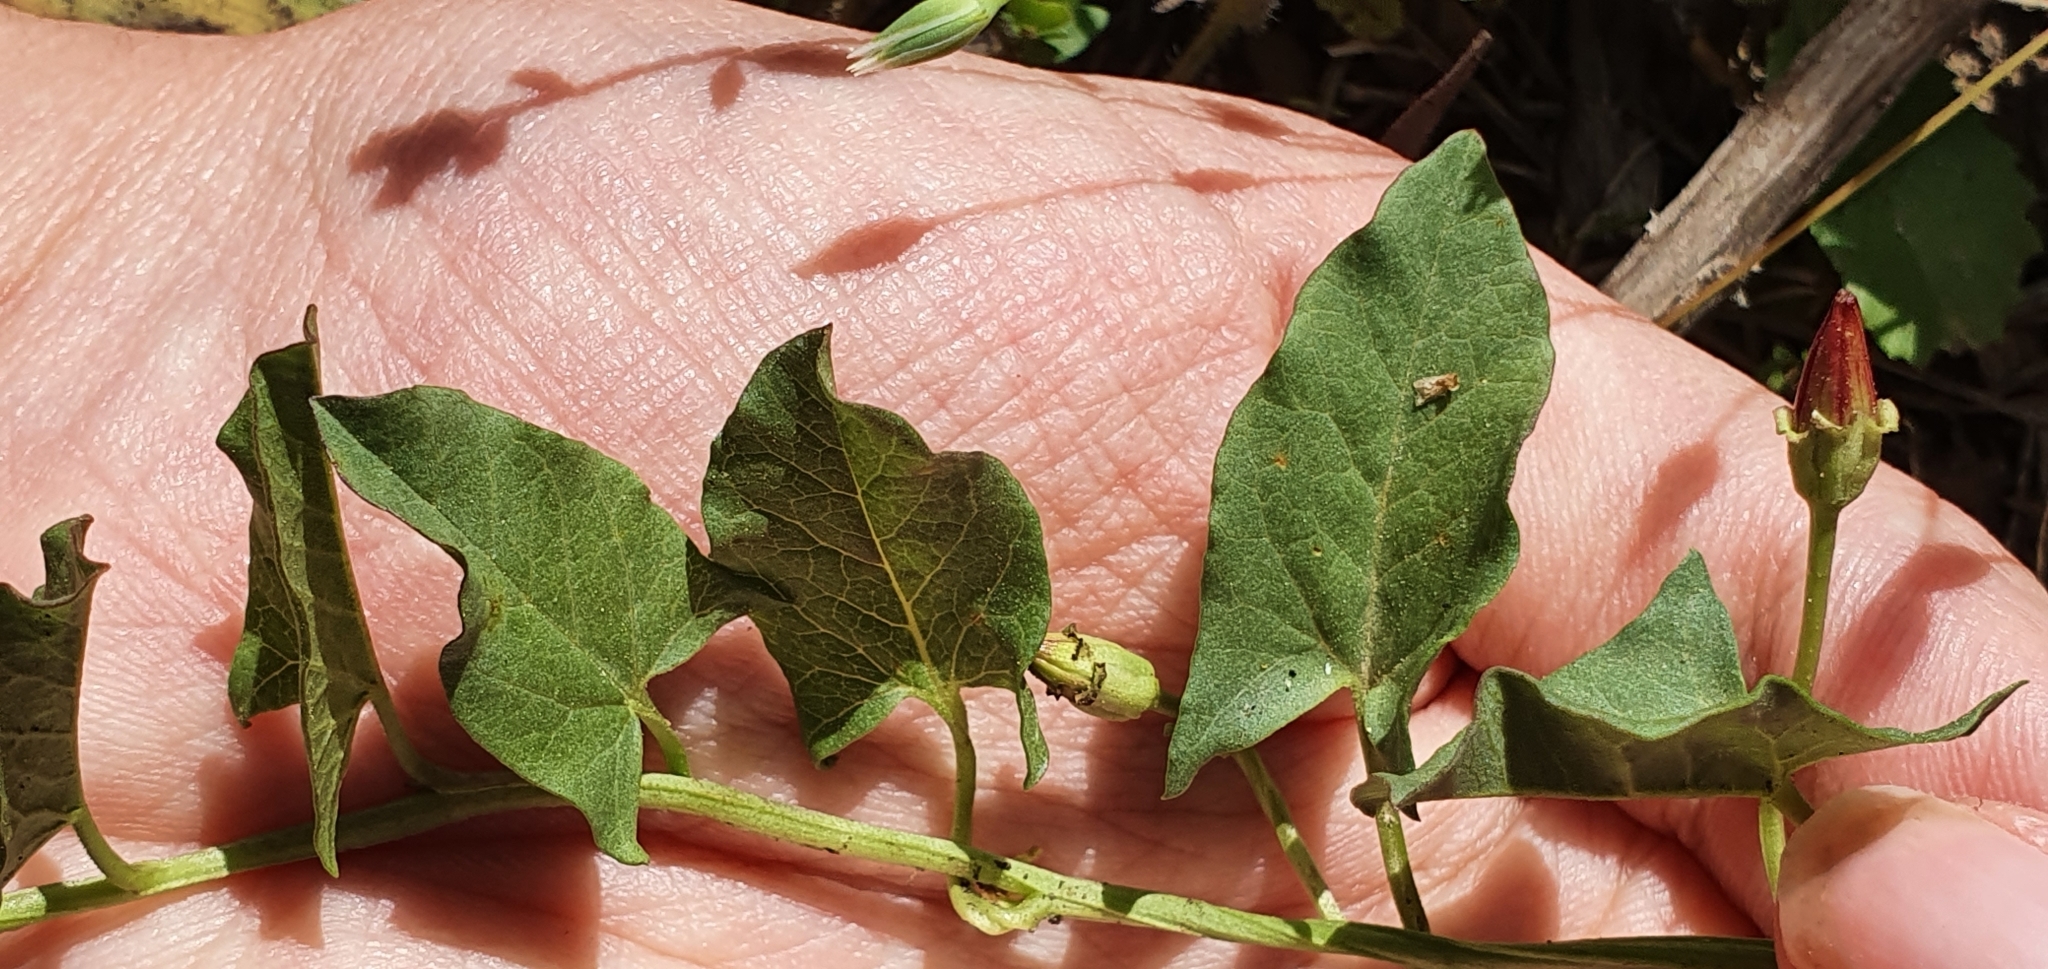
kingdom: Plantae
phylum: Tracheophyta
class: Magnoliopsida
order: Solanales
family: Convolvulaceae
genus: Convolvulus
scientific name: Convolvulus durandoi
